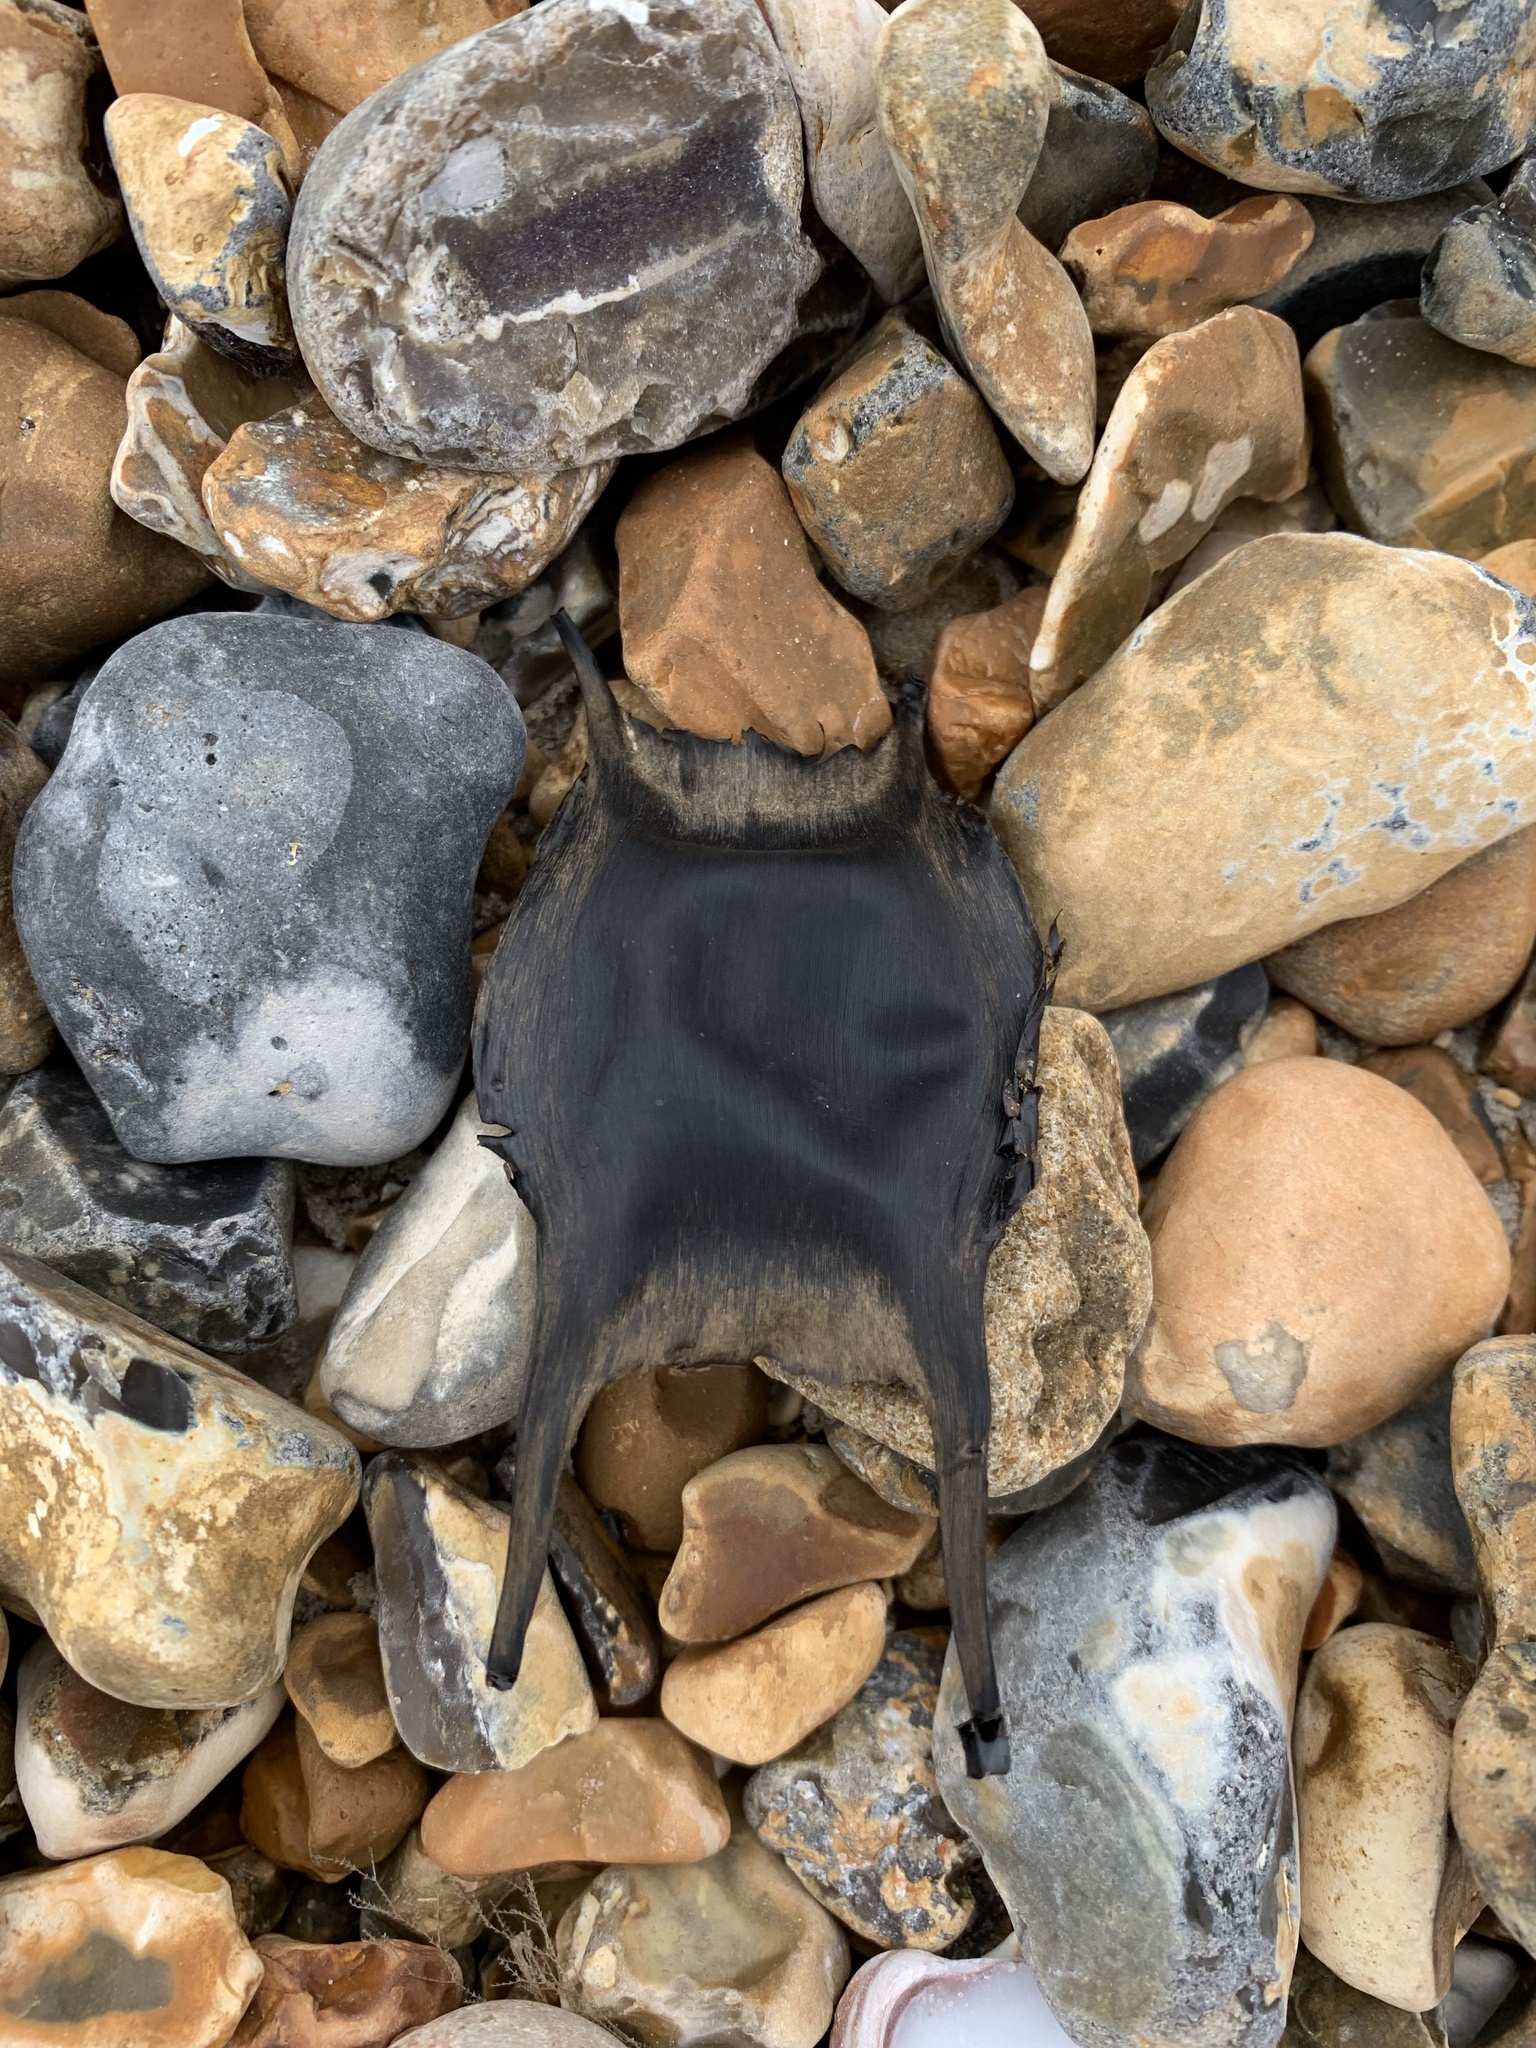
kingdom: Animalia
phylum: Chordata
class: Elasmobranchii
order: Rajiformes
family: Rajidae
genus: Raja
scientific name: Raja clavata
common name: Thornback ray
